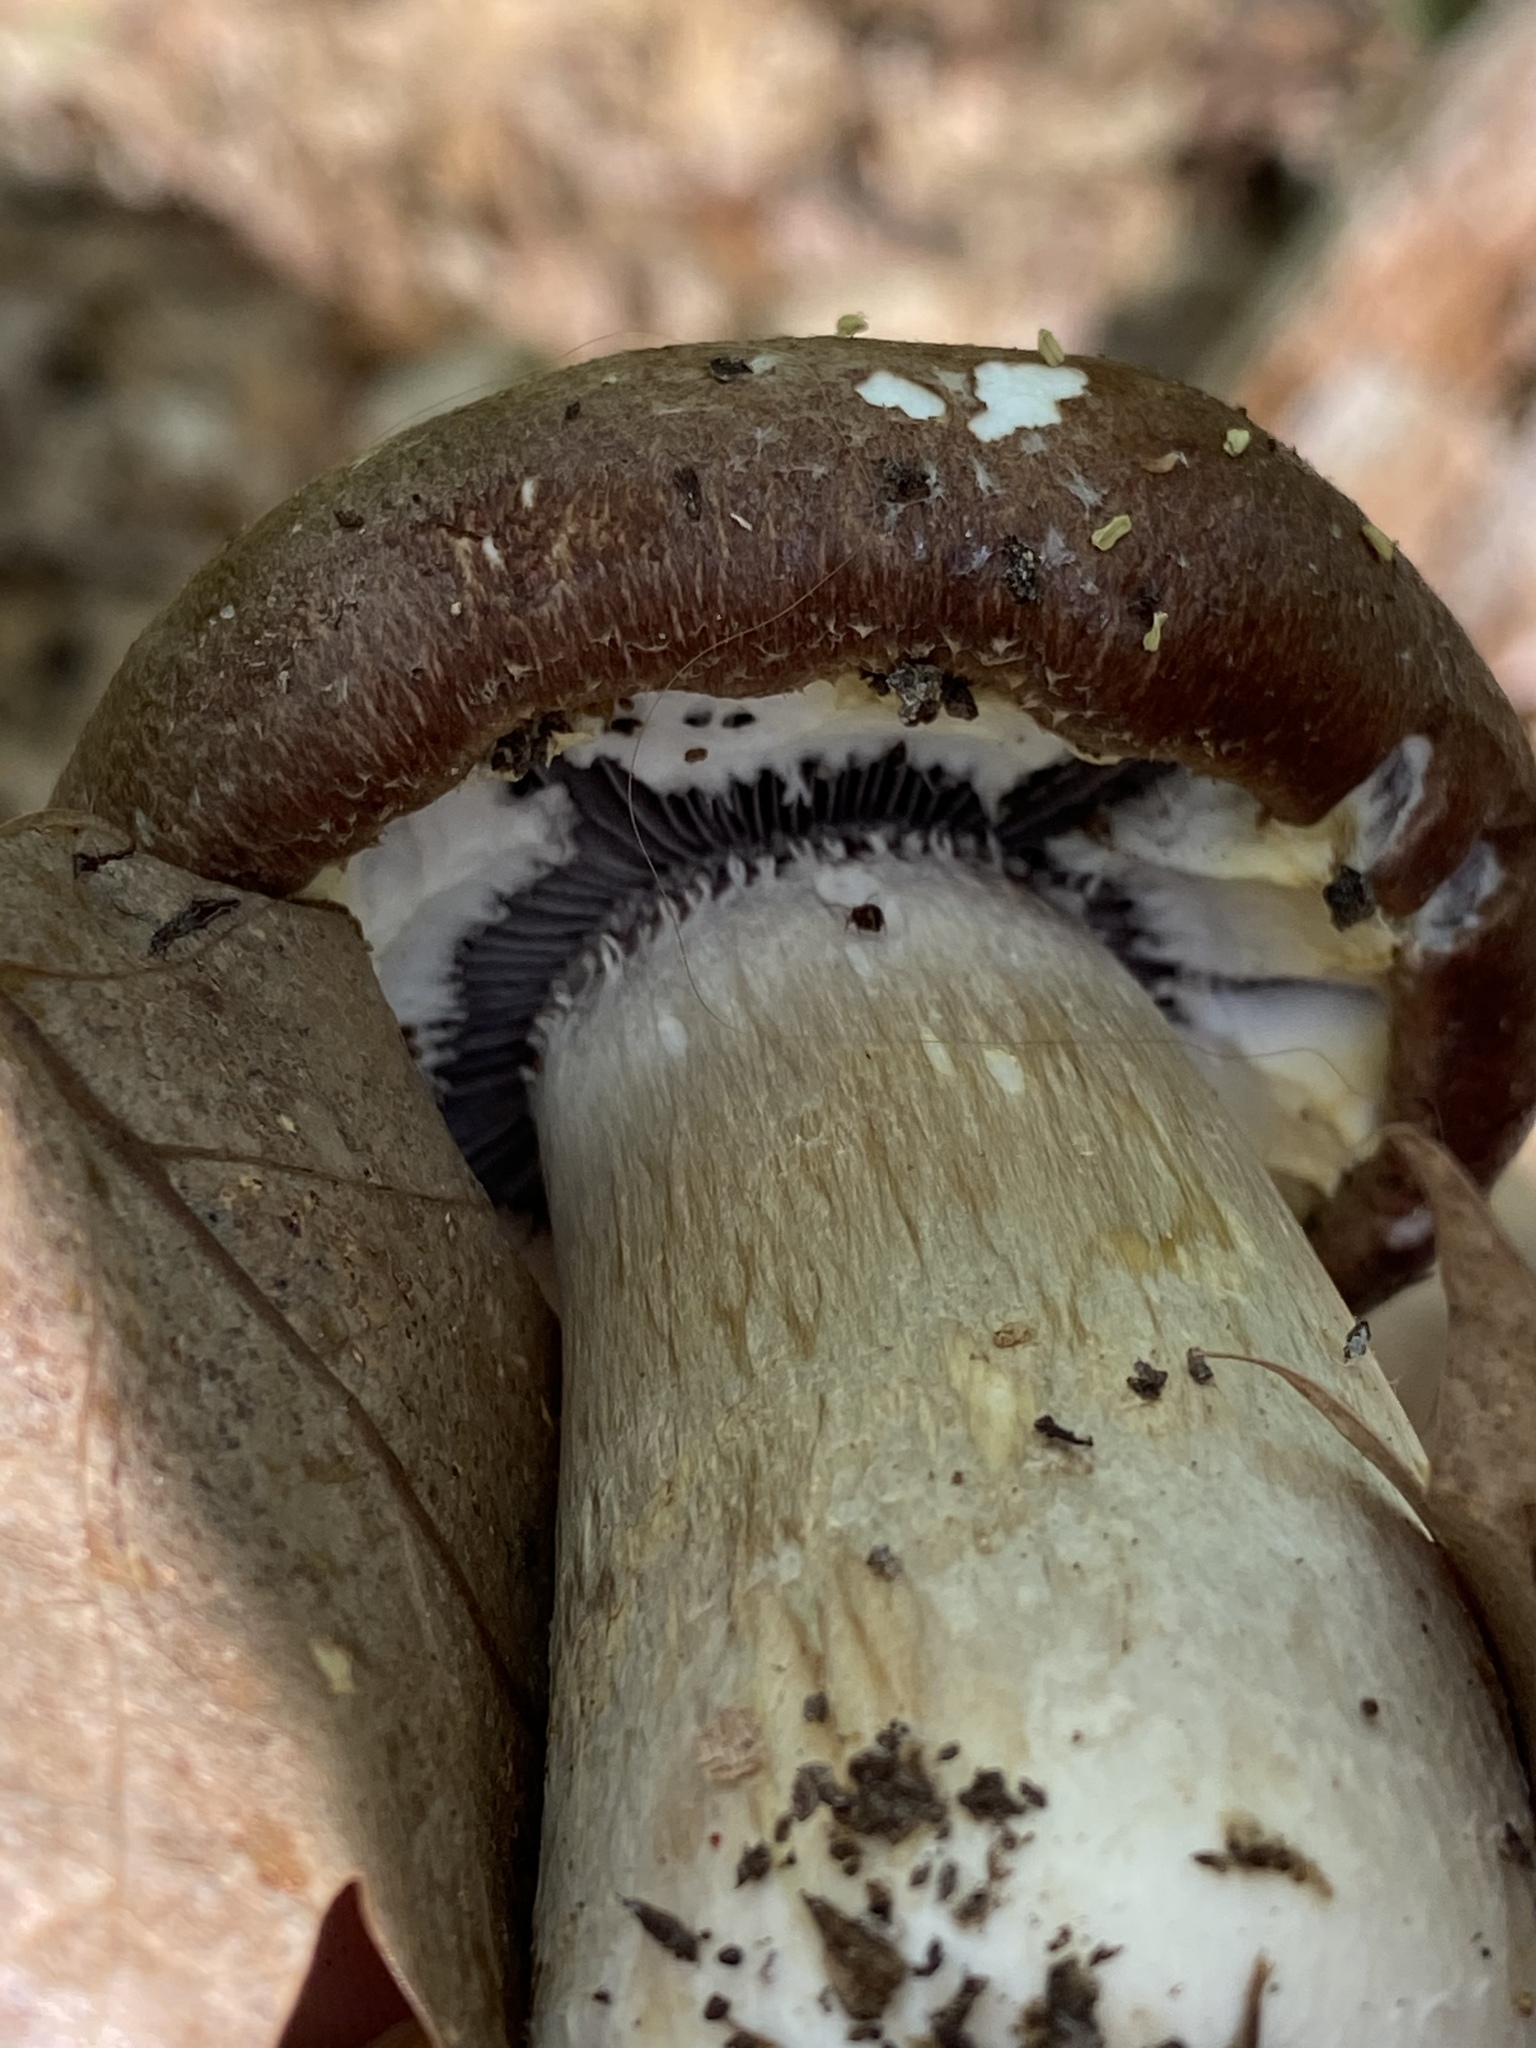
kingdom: Fungi
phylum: Basidiomycota
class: Agaricomycetes
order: Agaricales
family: Strophariaceae
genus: Stropharia
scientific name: Stropharia rugosoannulata
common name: Wine roundhead
